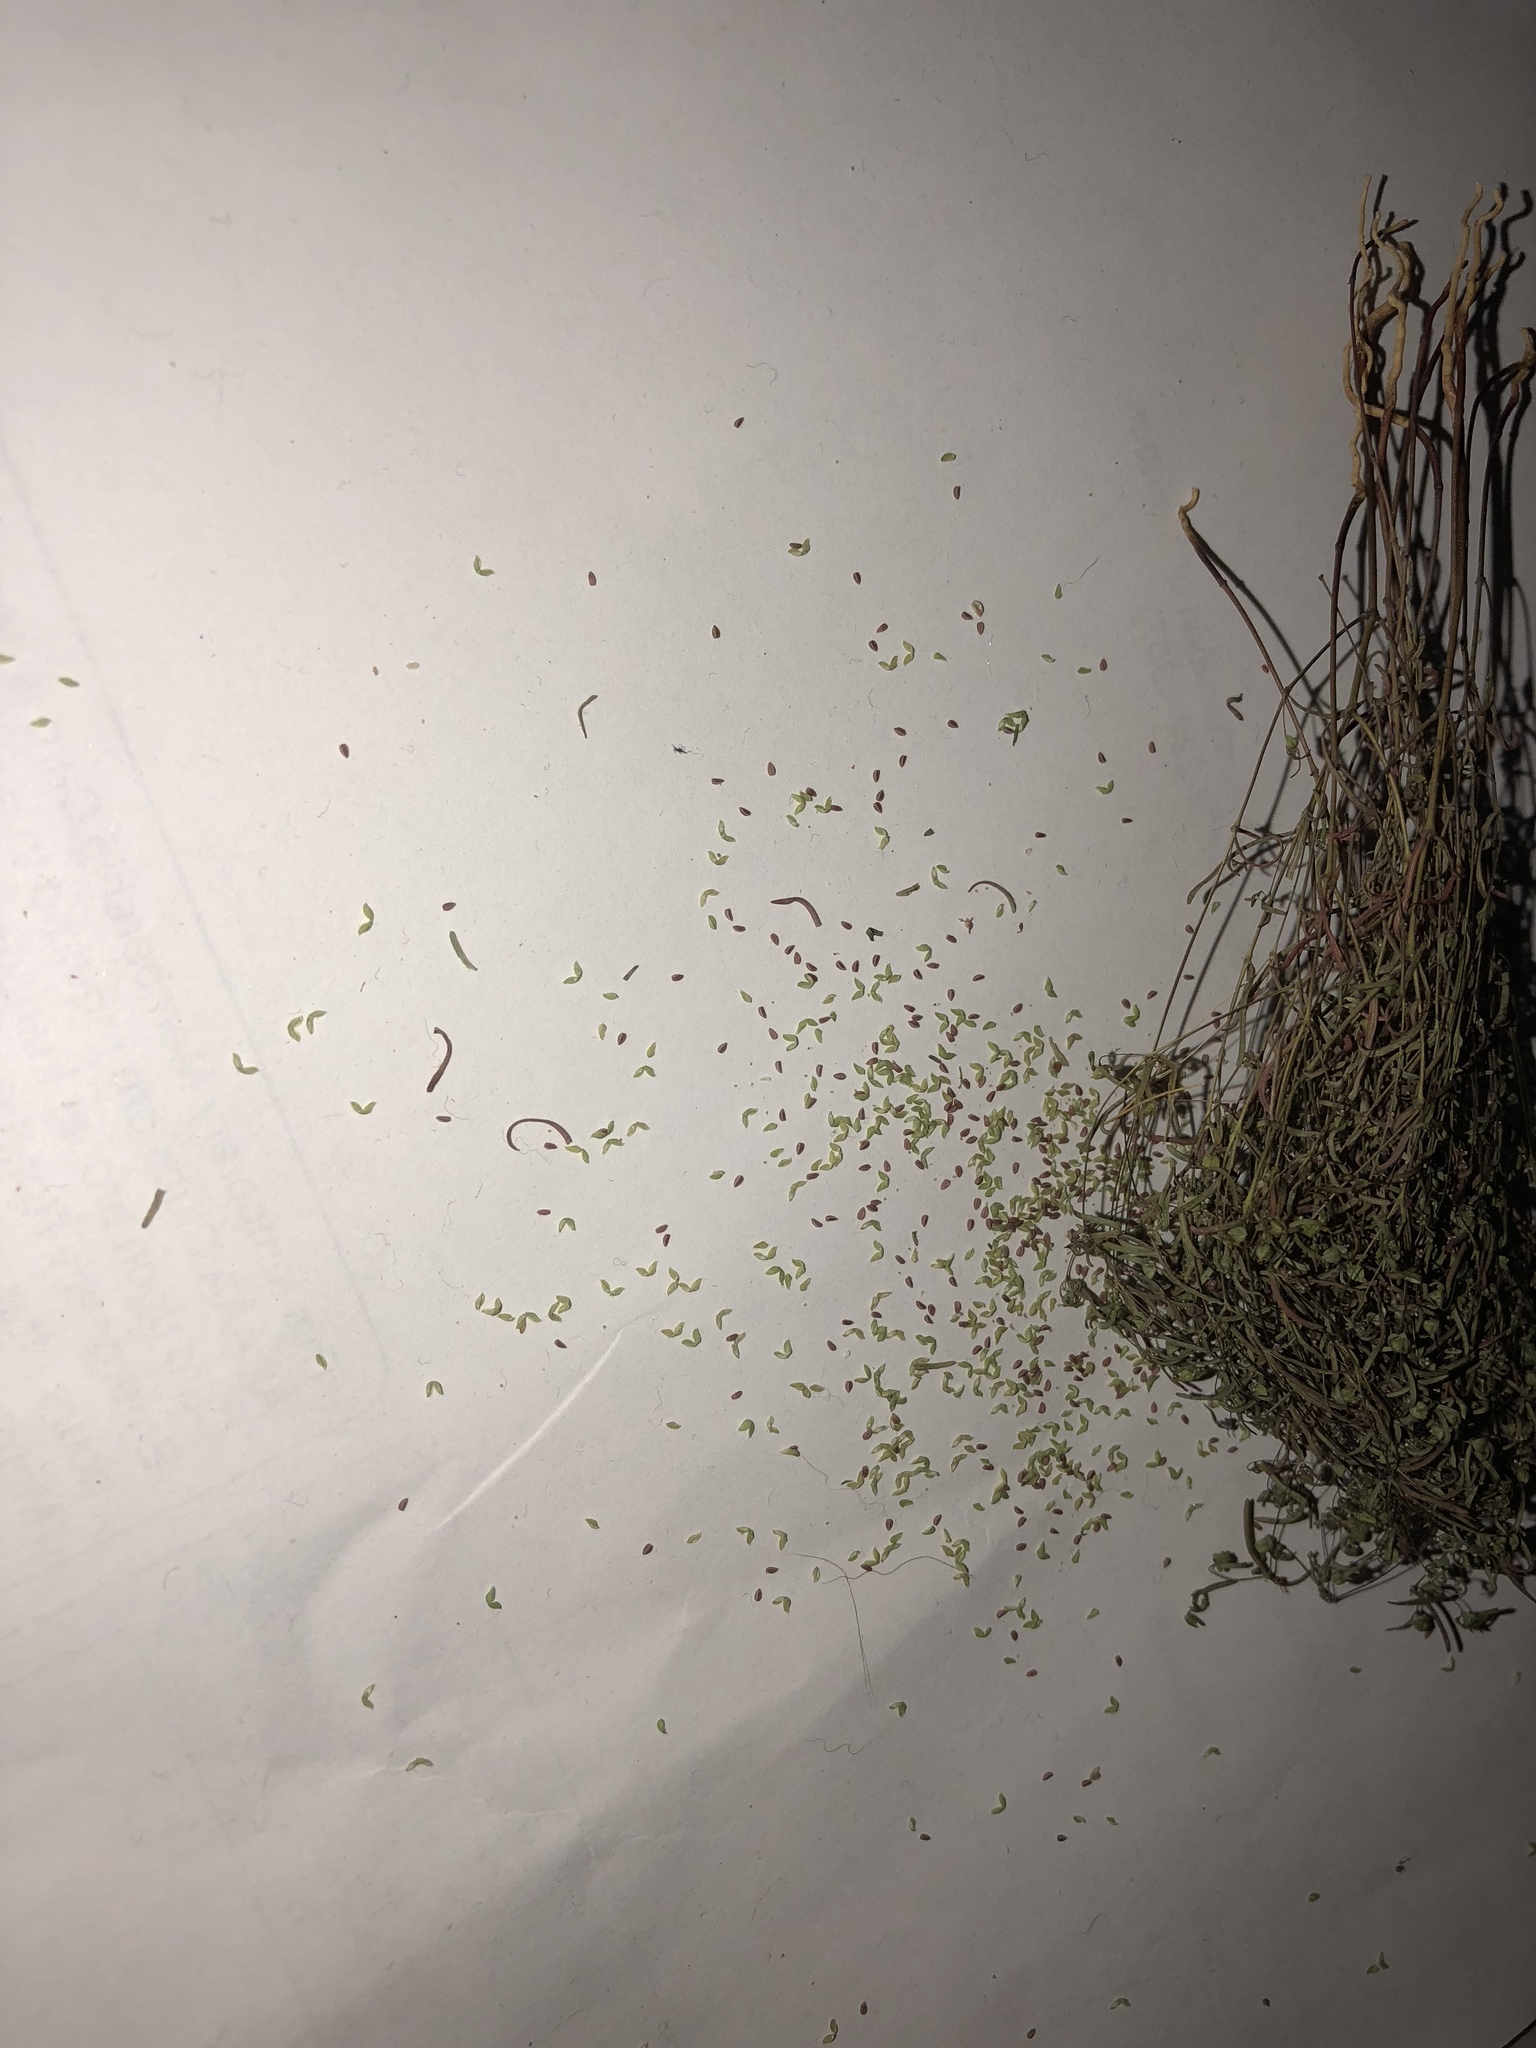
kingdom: Plantae
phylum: Tracheophyta
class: Magnoliopsida
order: Malpighiales
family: Euphorbiaceae
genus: Euphorbia
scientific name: Euphorbia gracillima
